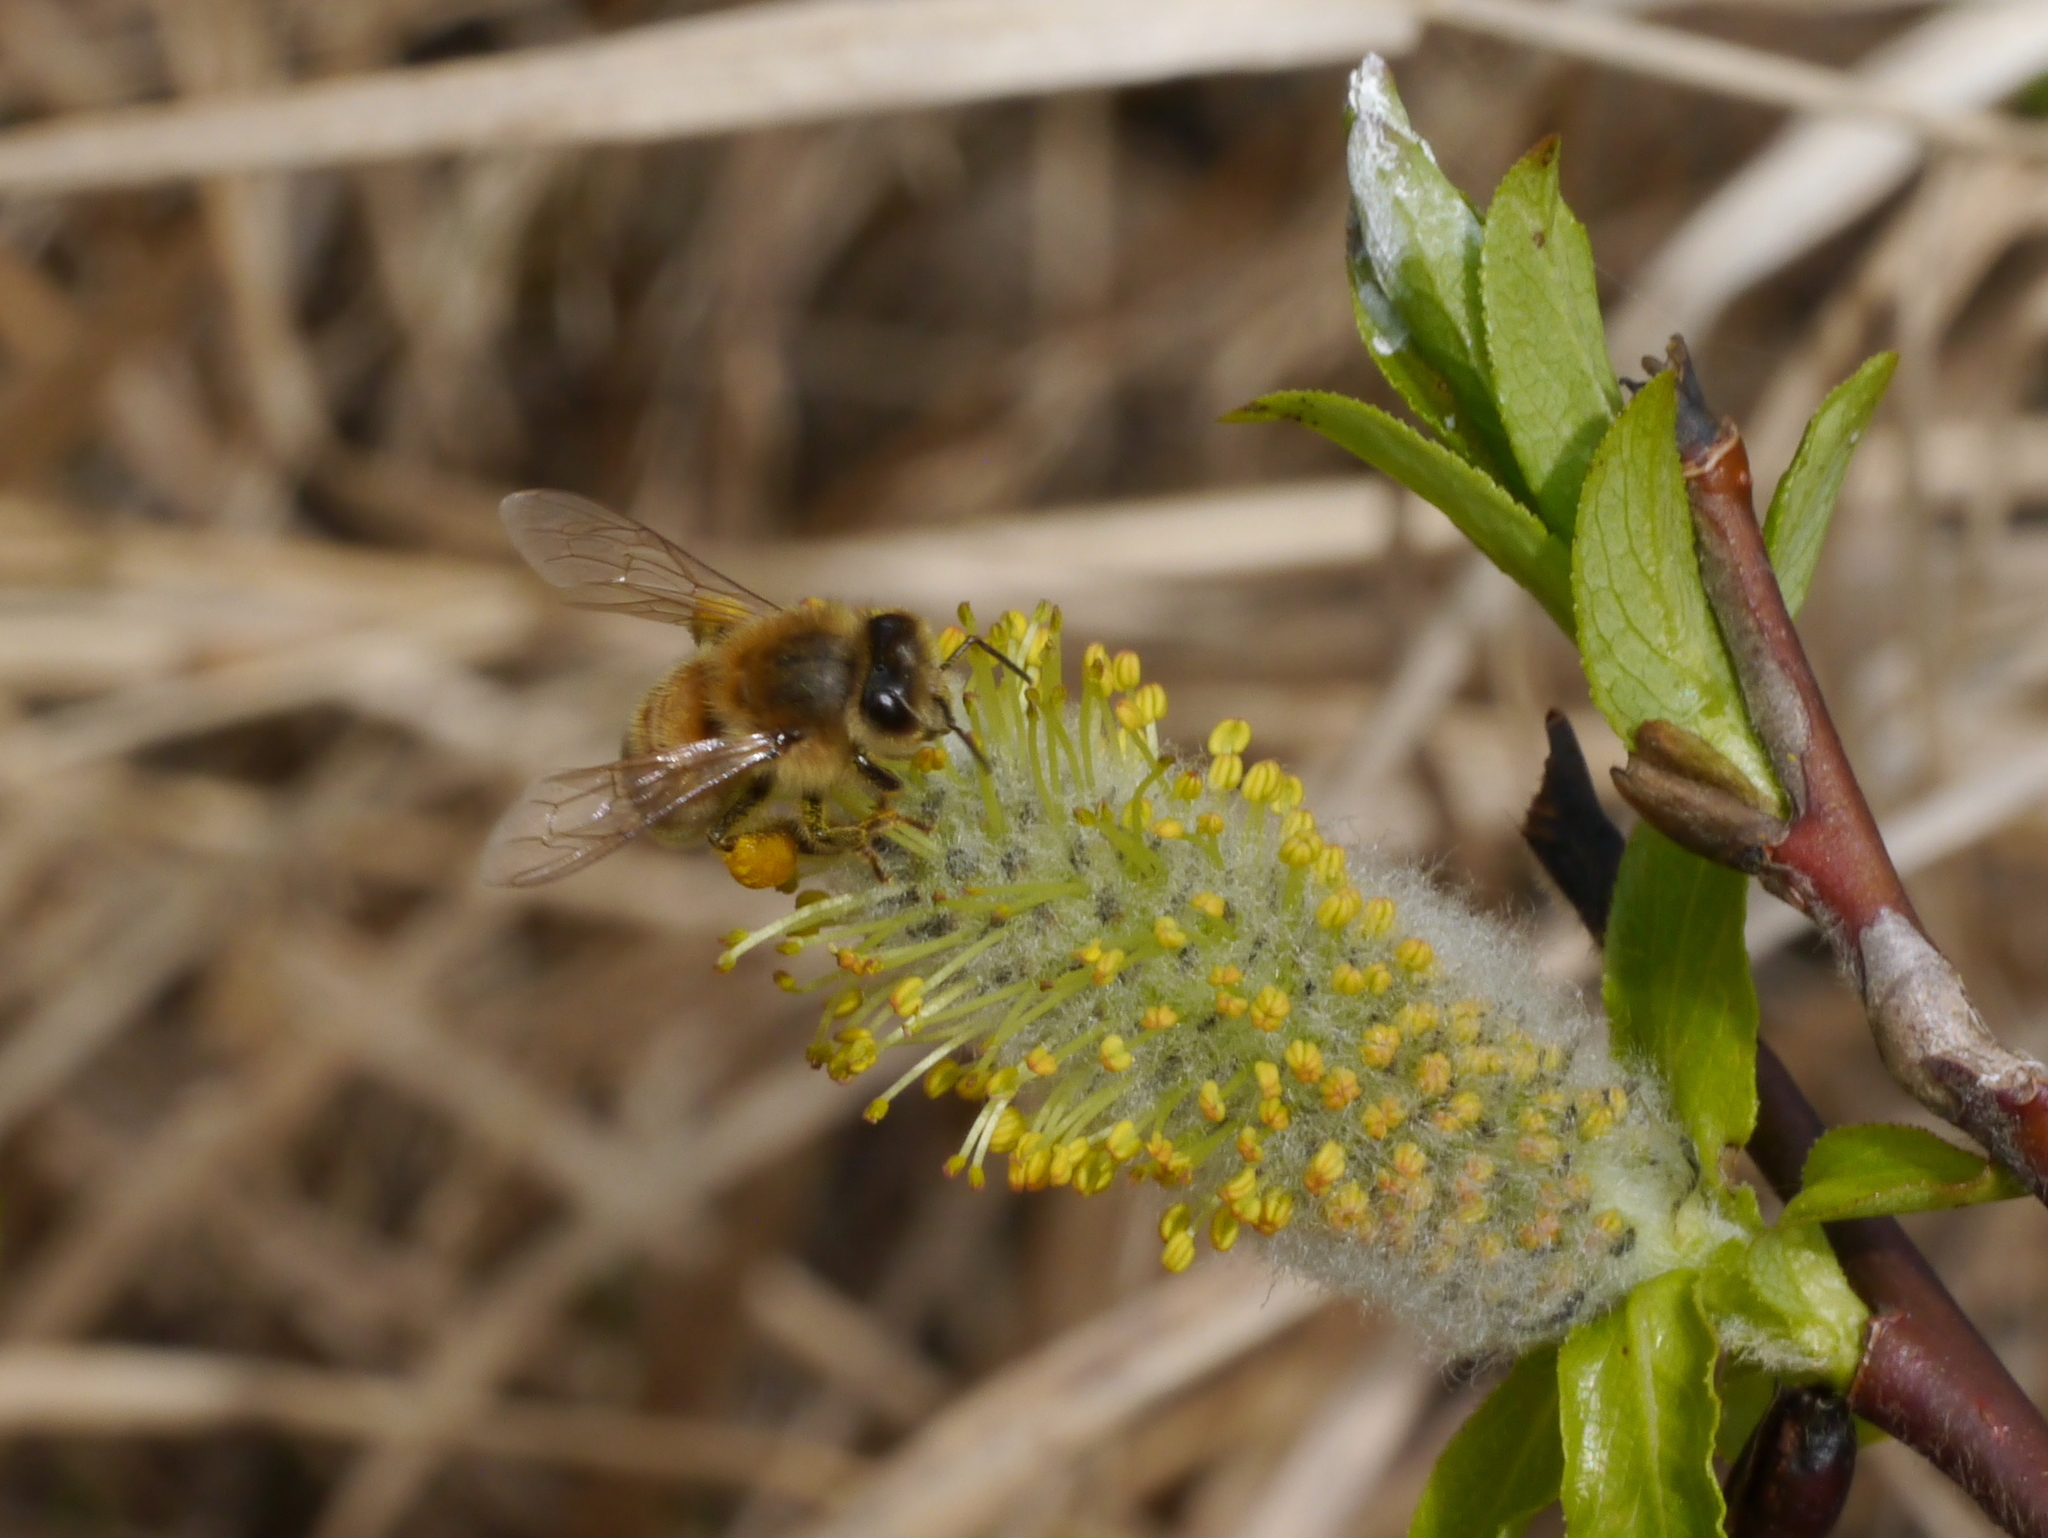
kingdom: Animalia
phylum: Arthropoda
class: Insecta
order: Hymenoptera
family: Apidae
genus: Apis
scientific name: Apis mellifera
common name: Honey bee
